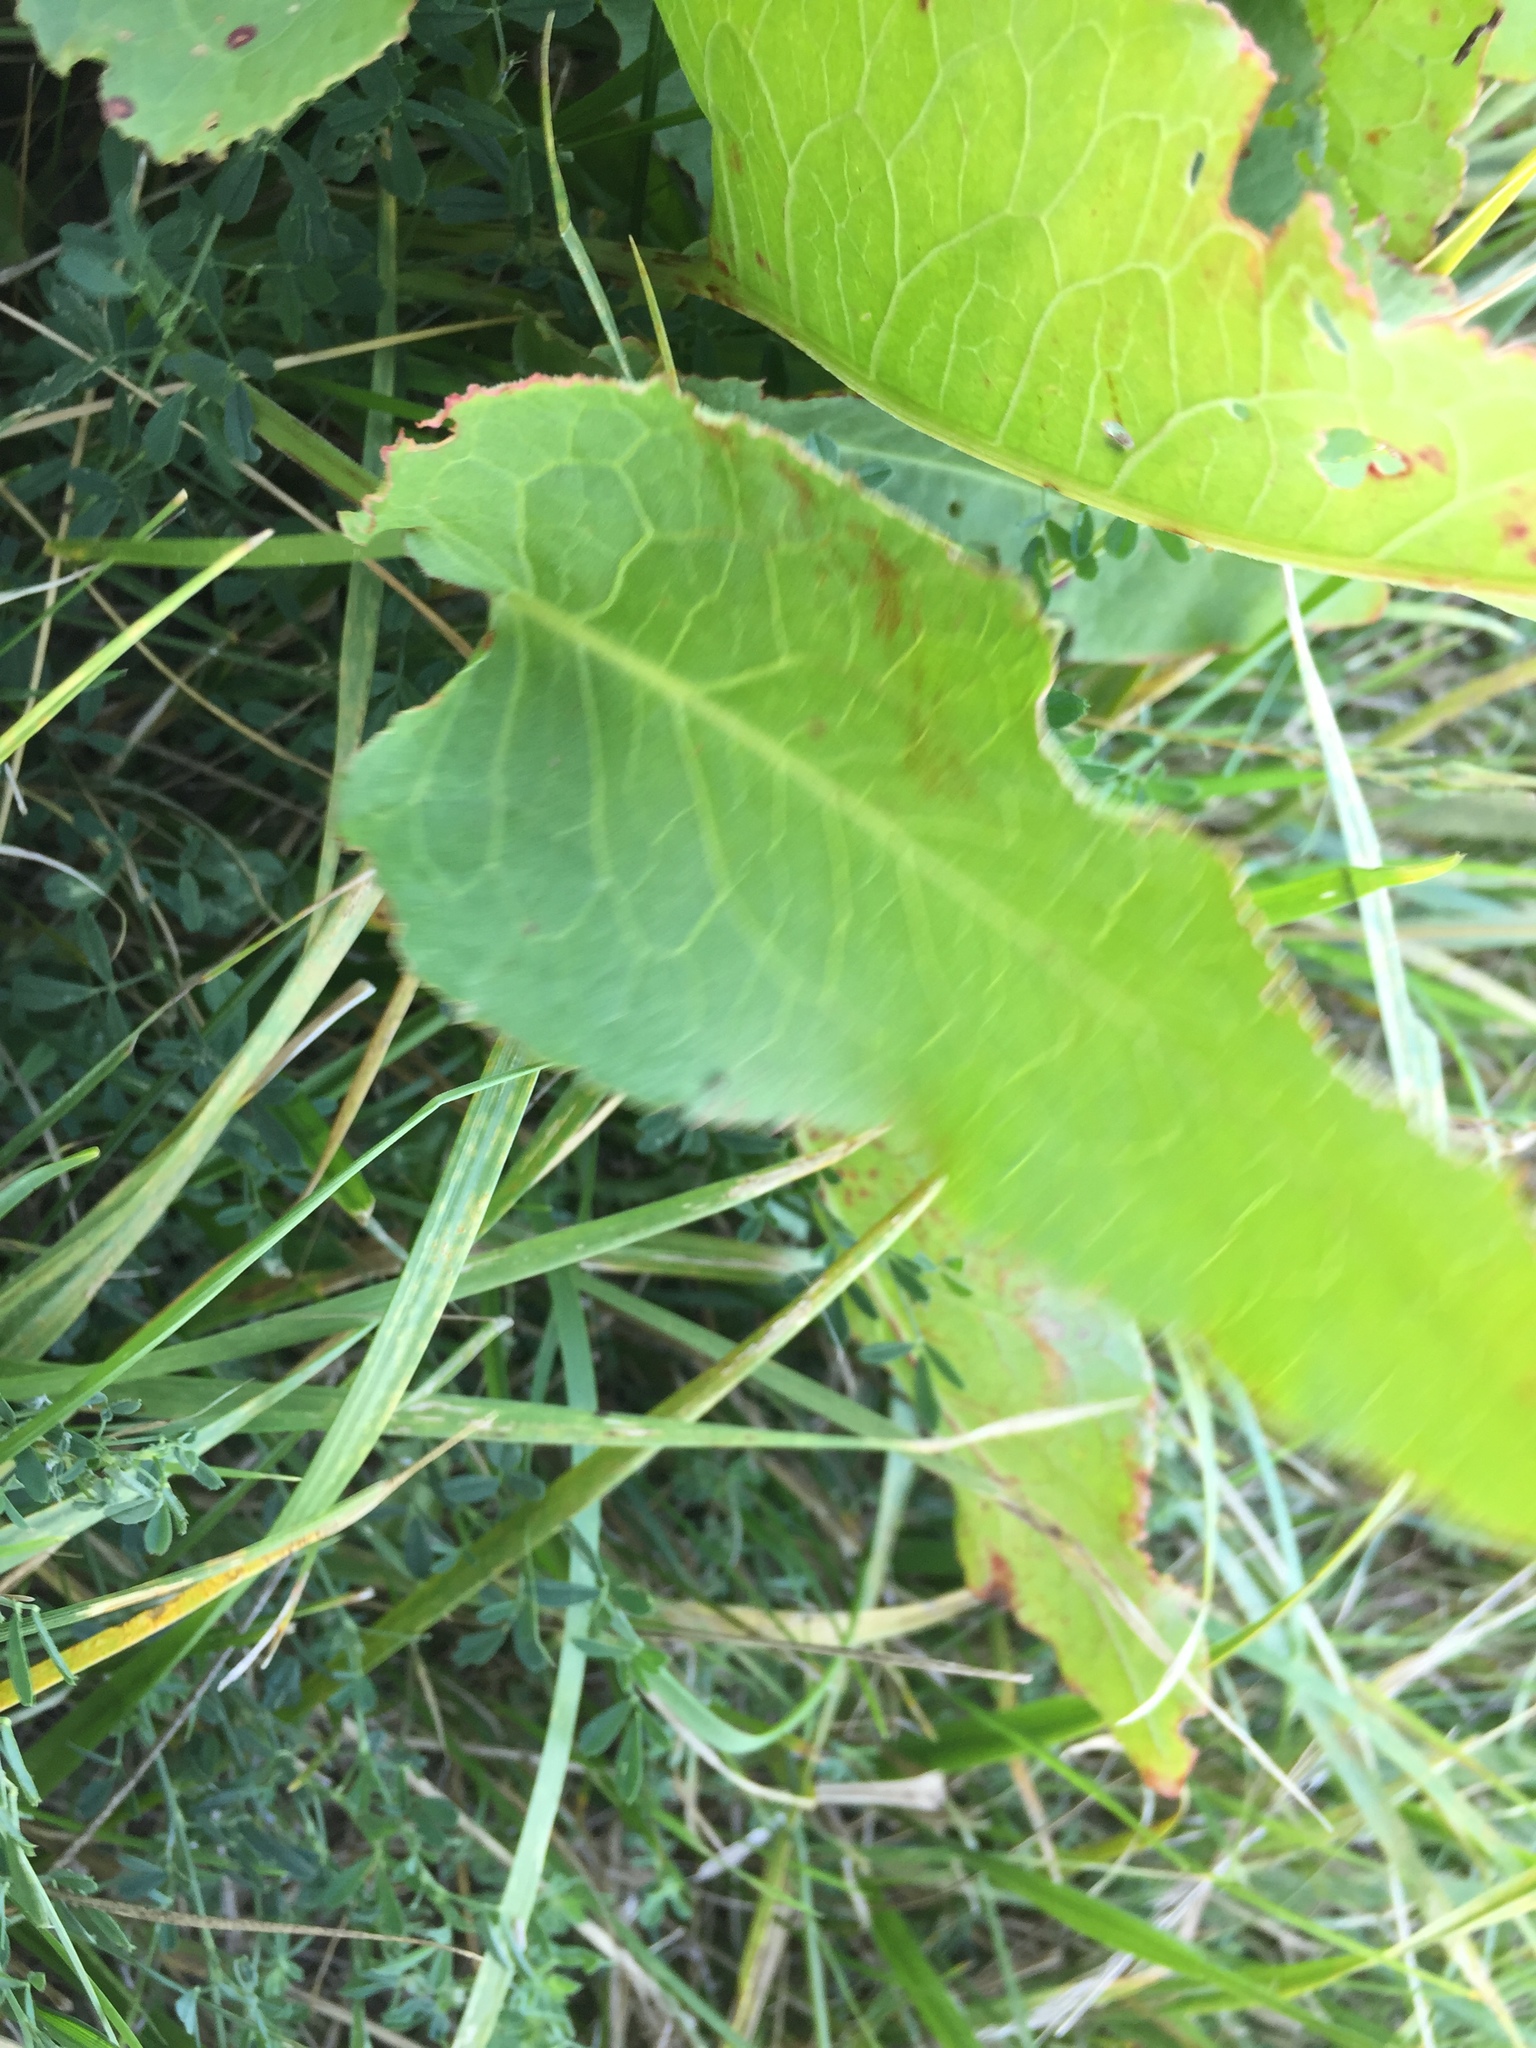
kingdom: Plantae
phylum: Tracheophyta
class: Magnoliopsida
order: Caryophyllales
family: Polygonaceae
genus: Rumex
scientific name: Rumex confertus
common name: Russian dock
